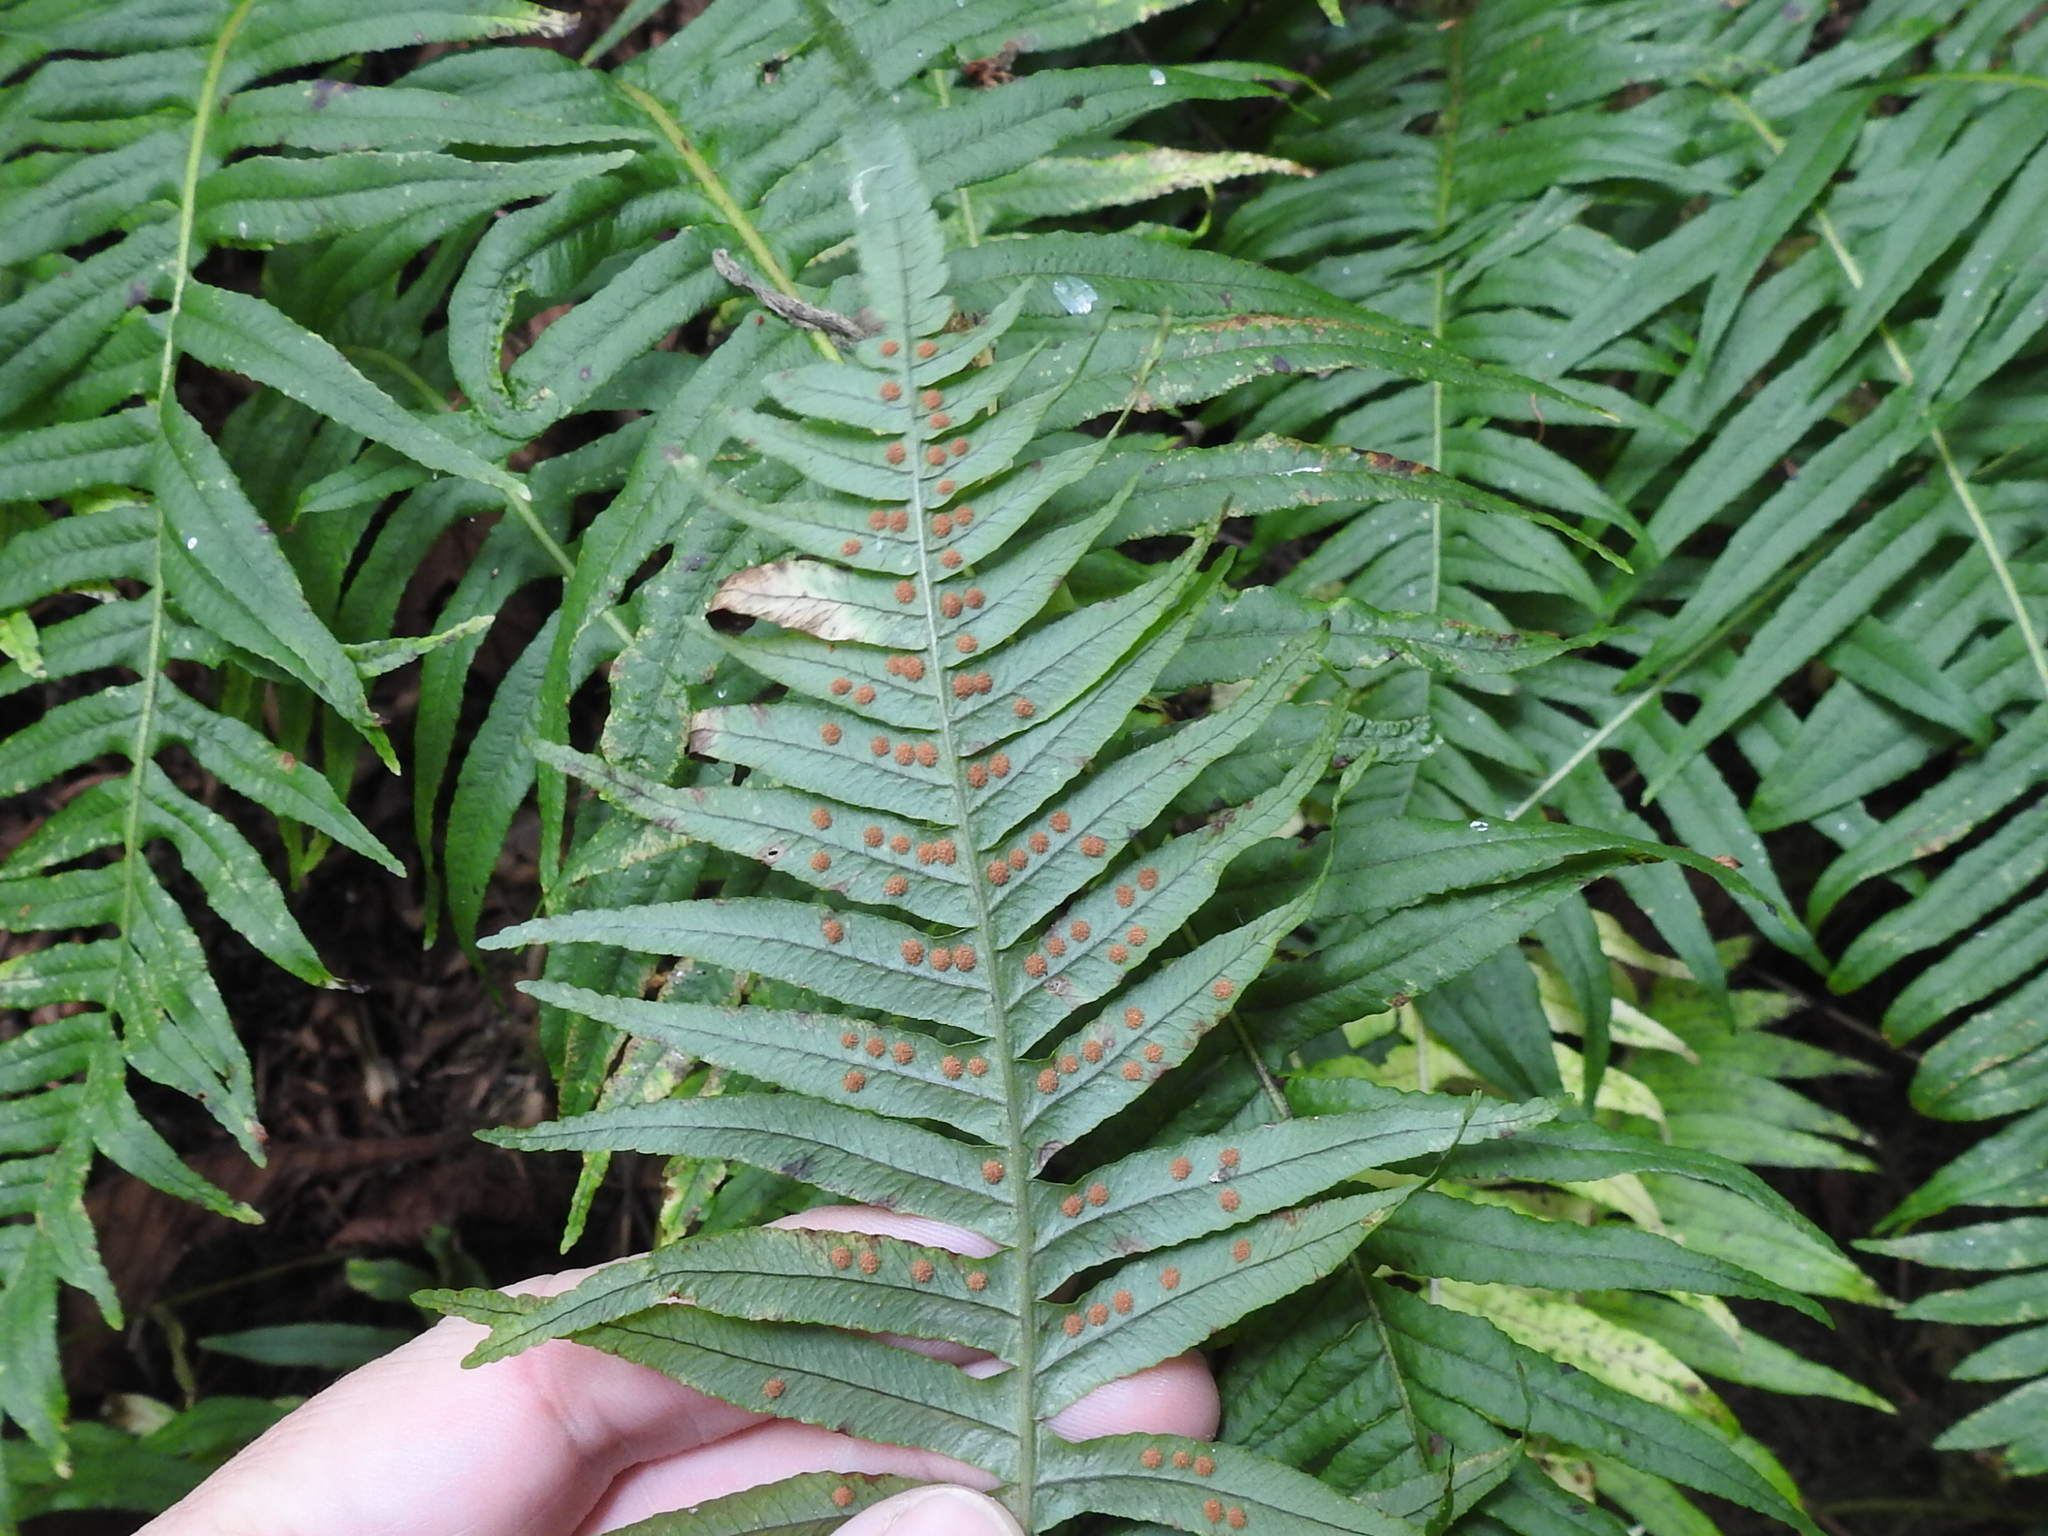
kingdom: Plantae
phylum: Tracheophyta
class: Polypodiopsida
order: Polypodiales
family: Polypodiaceae
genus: Polypodium
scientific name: Polypodium glycyrrhiza
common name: Licorice fern
